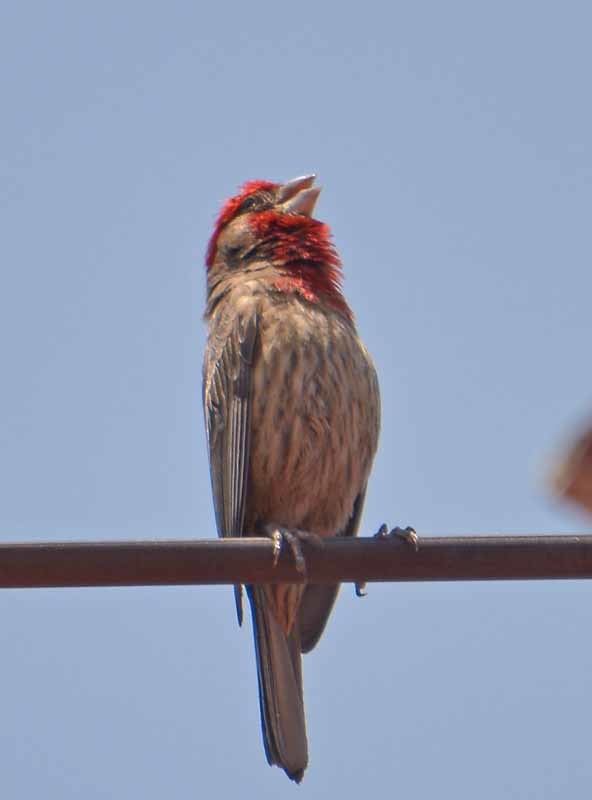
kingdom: Animalia
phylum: Chordata
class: Aves
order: Passeriformes
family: Fringillidae
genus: Haemorhous
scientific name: Haemorhous mexicanus
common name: House finch
